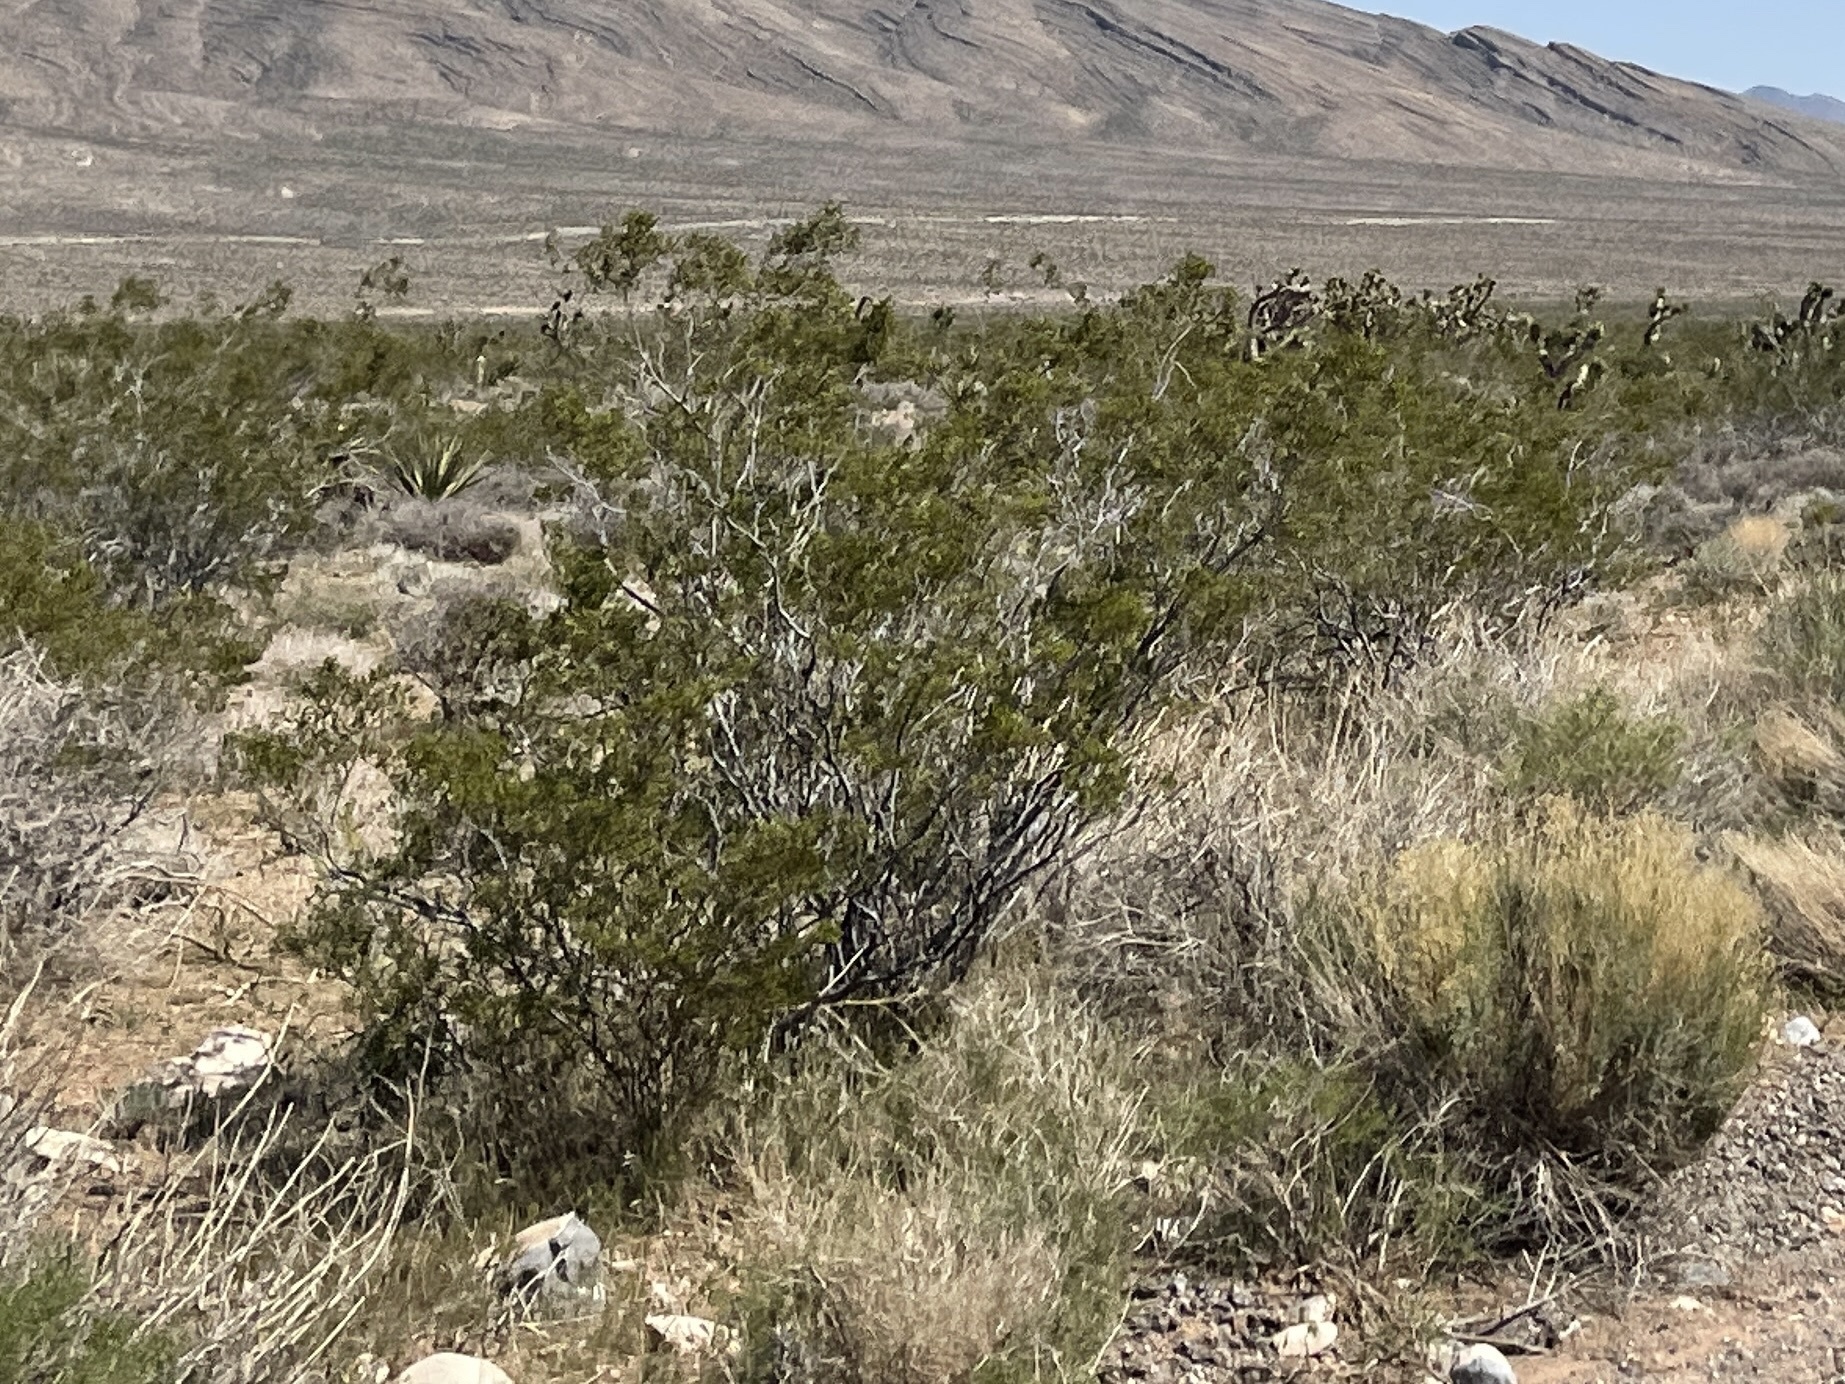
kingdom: Plantae
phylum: Tracheophyta
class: Magnoliopsida
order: Zygophyllales
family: Zygophyllaceae
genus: Larrea
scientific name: Larrea tridentata
